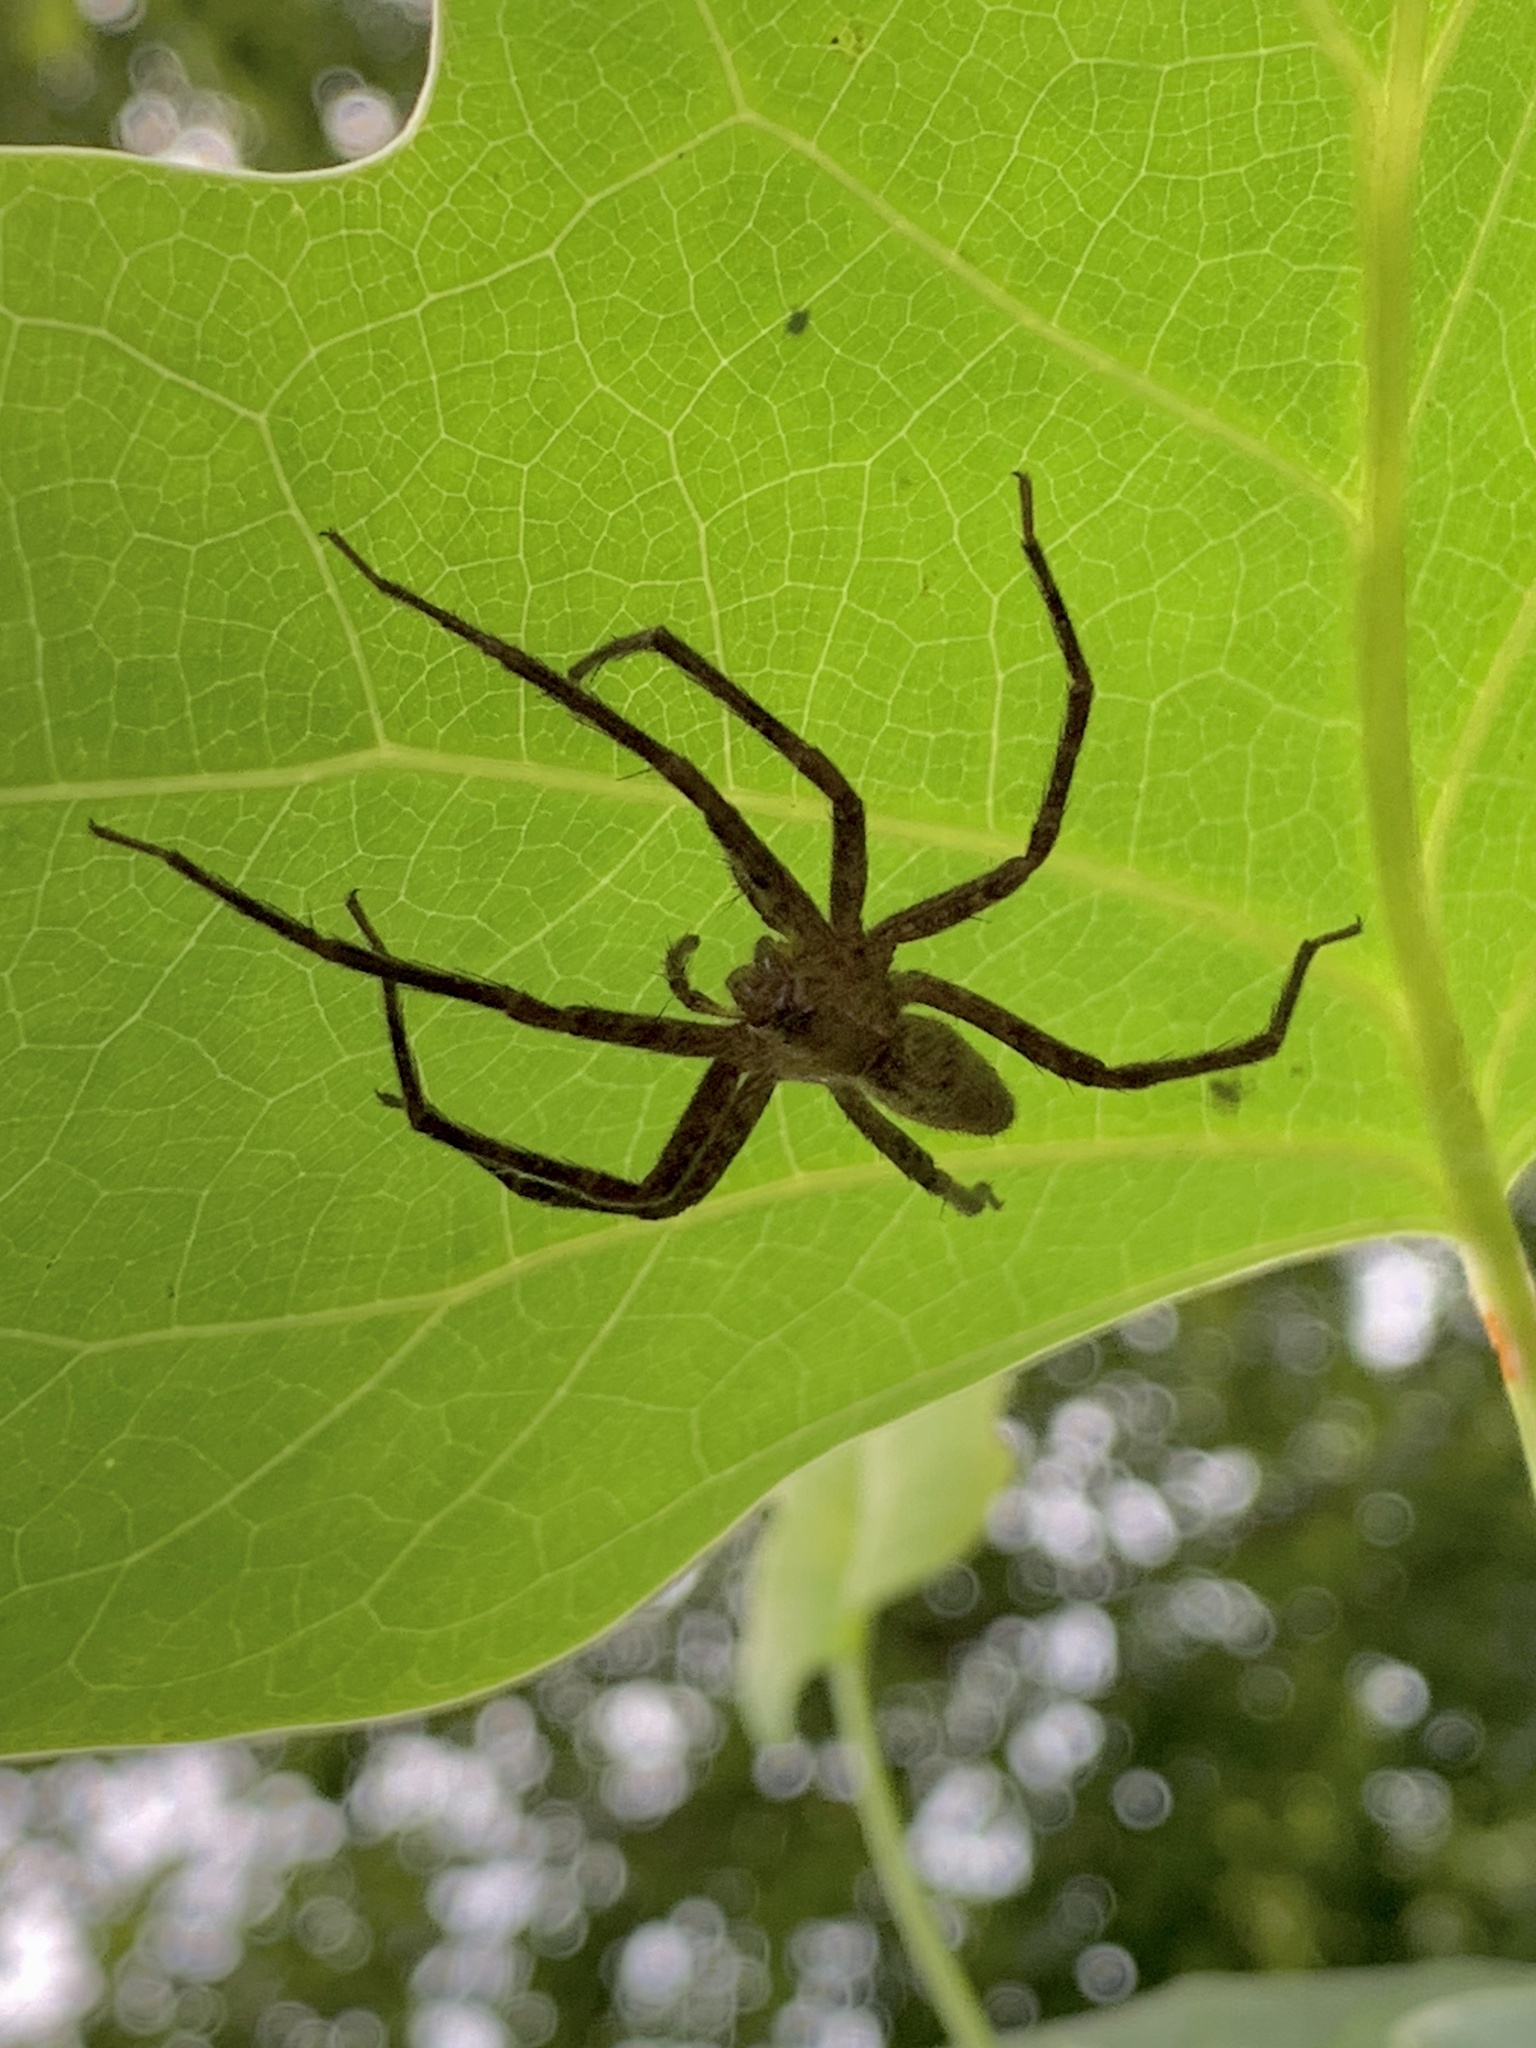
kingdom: Animalia
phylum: Arthropoda
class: Arachnida
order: Araneae
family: Pisauridae
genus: Pisaurina
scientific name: Pisaurina mira
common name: American nursery web spider
